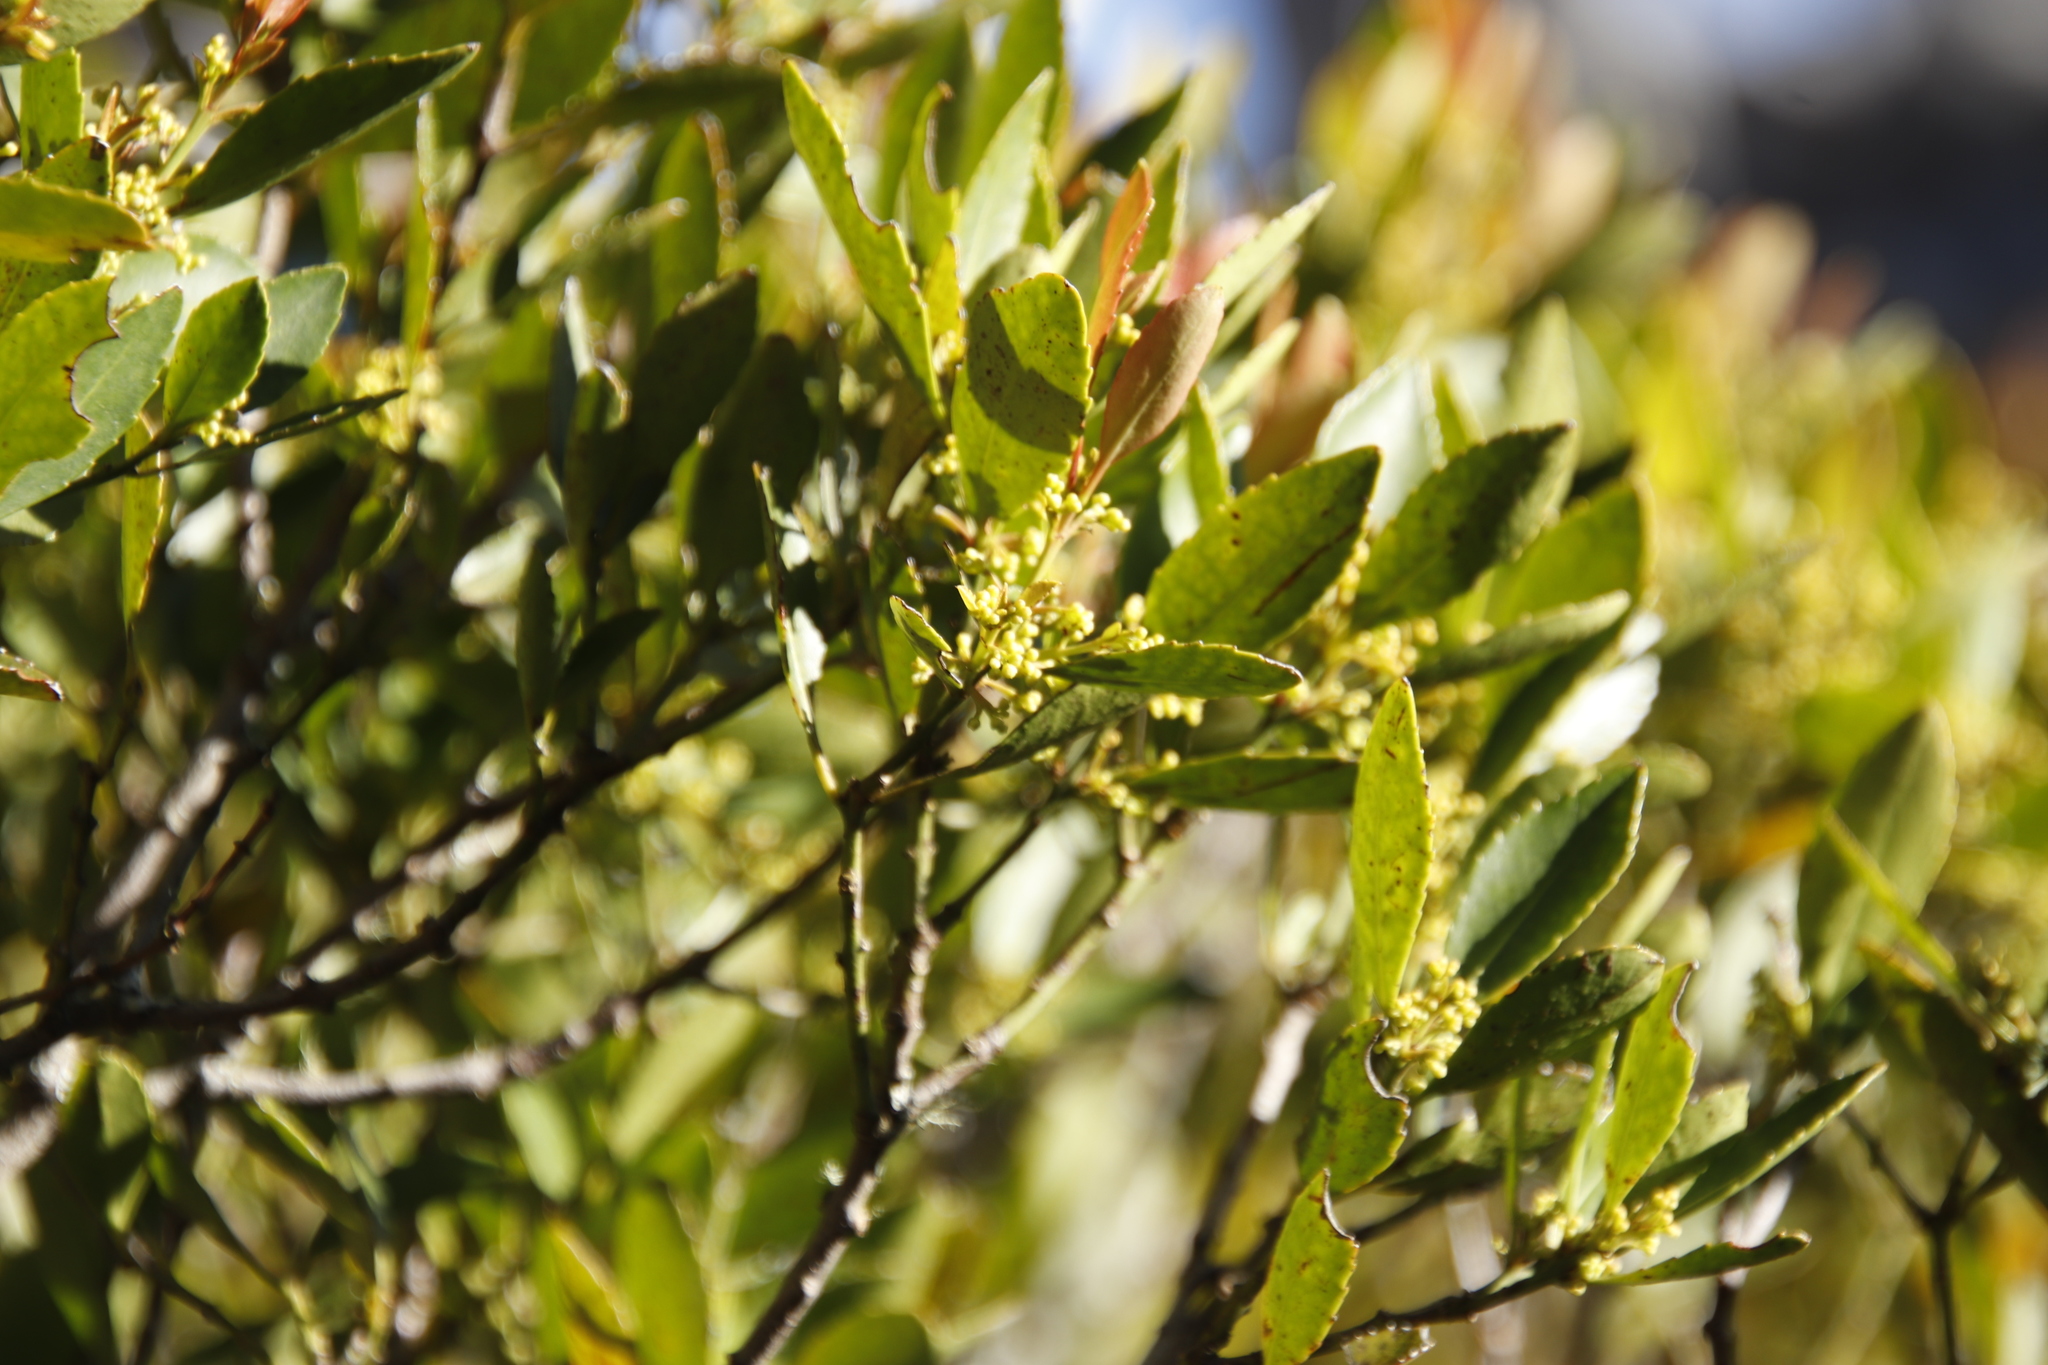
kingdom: Plantae
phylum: Tracheophyta
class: Magnoliopsida
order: Celastrales
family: Celastraceae
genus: Elaeodendron
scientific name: Elaeodendron schinoides
